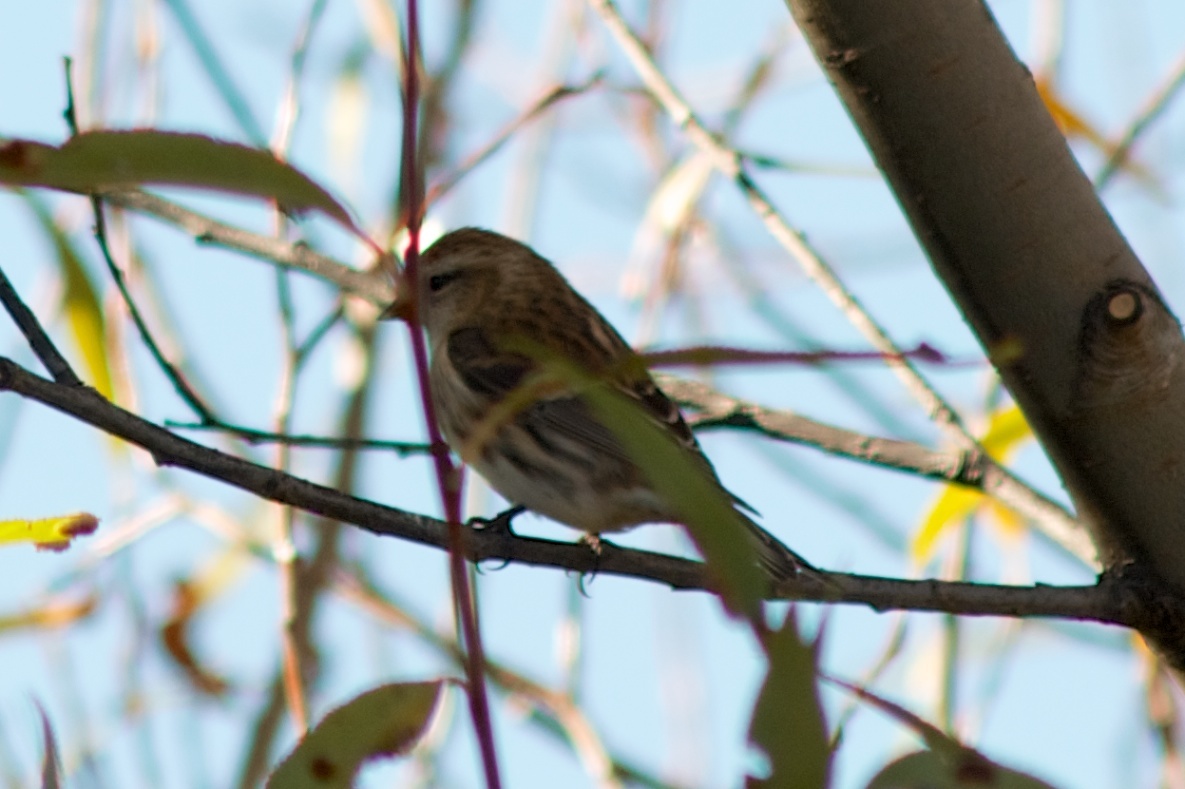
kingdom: Animalia
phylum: Chordata
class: Aves
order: Passeriformes
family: Fringillidae
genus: Acanthis
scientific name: Acanthis flammea
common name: Common redpoll
